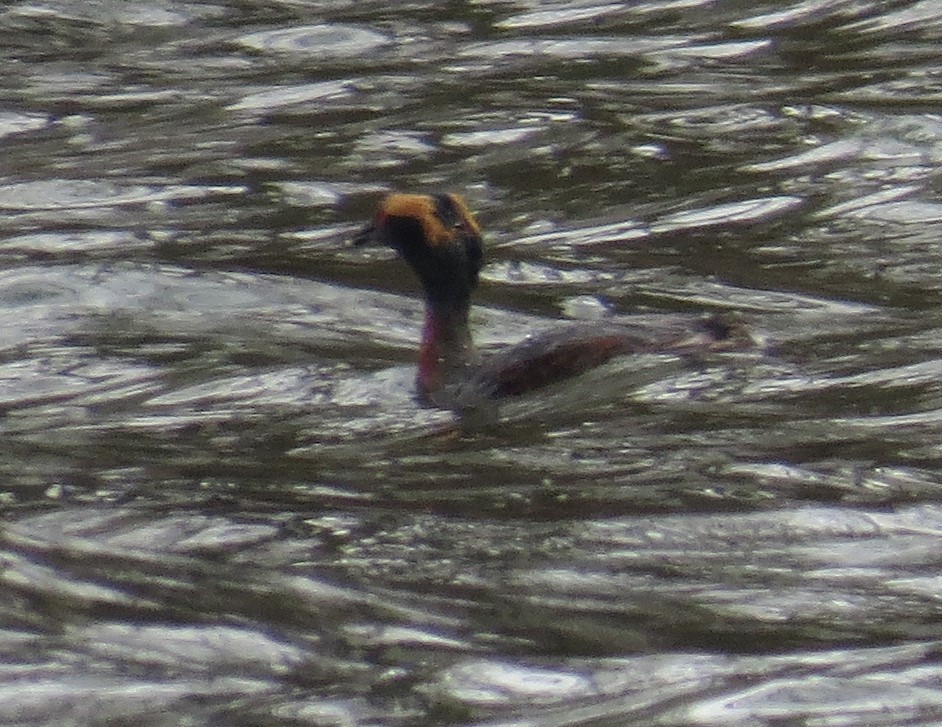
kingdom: Animalia
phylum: Chordata
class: Aves
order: Podicipediformes
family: Podicipedidae
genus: Podiceps
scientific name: Podiceps auritus
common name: Horned grebe
